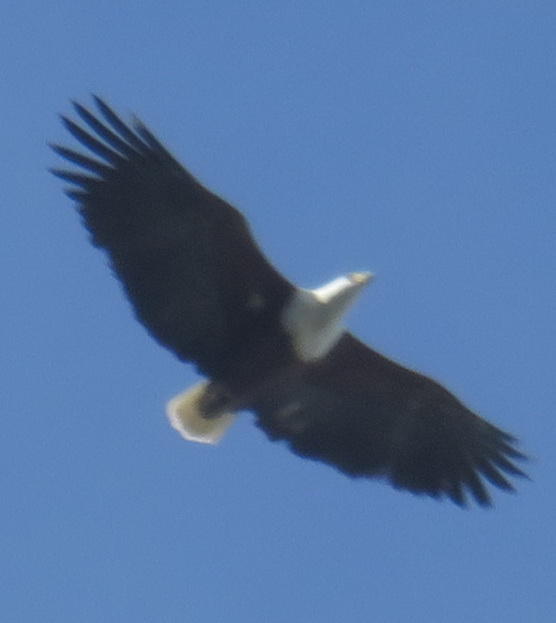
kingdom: Animalia
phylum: Chordata
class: Aves
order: Accipitriformes
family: Accipitridae
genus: Haliaeetus
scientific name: Haliaeetus vocifer
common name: African fish eagle
